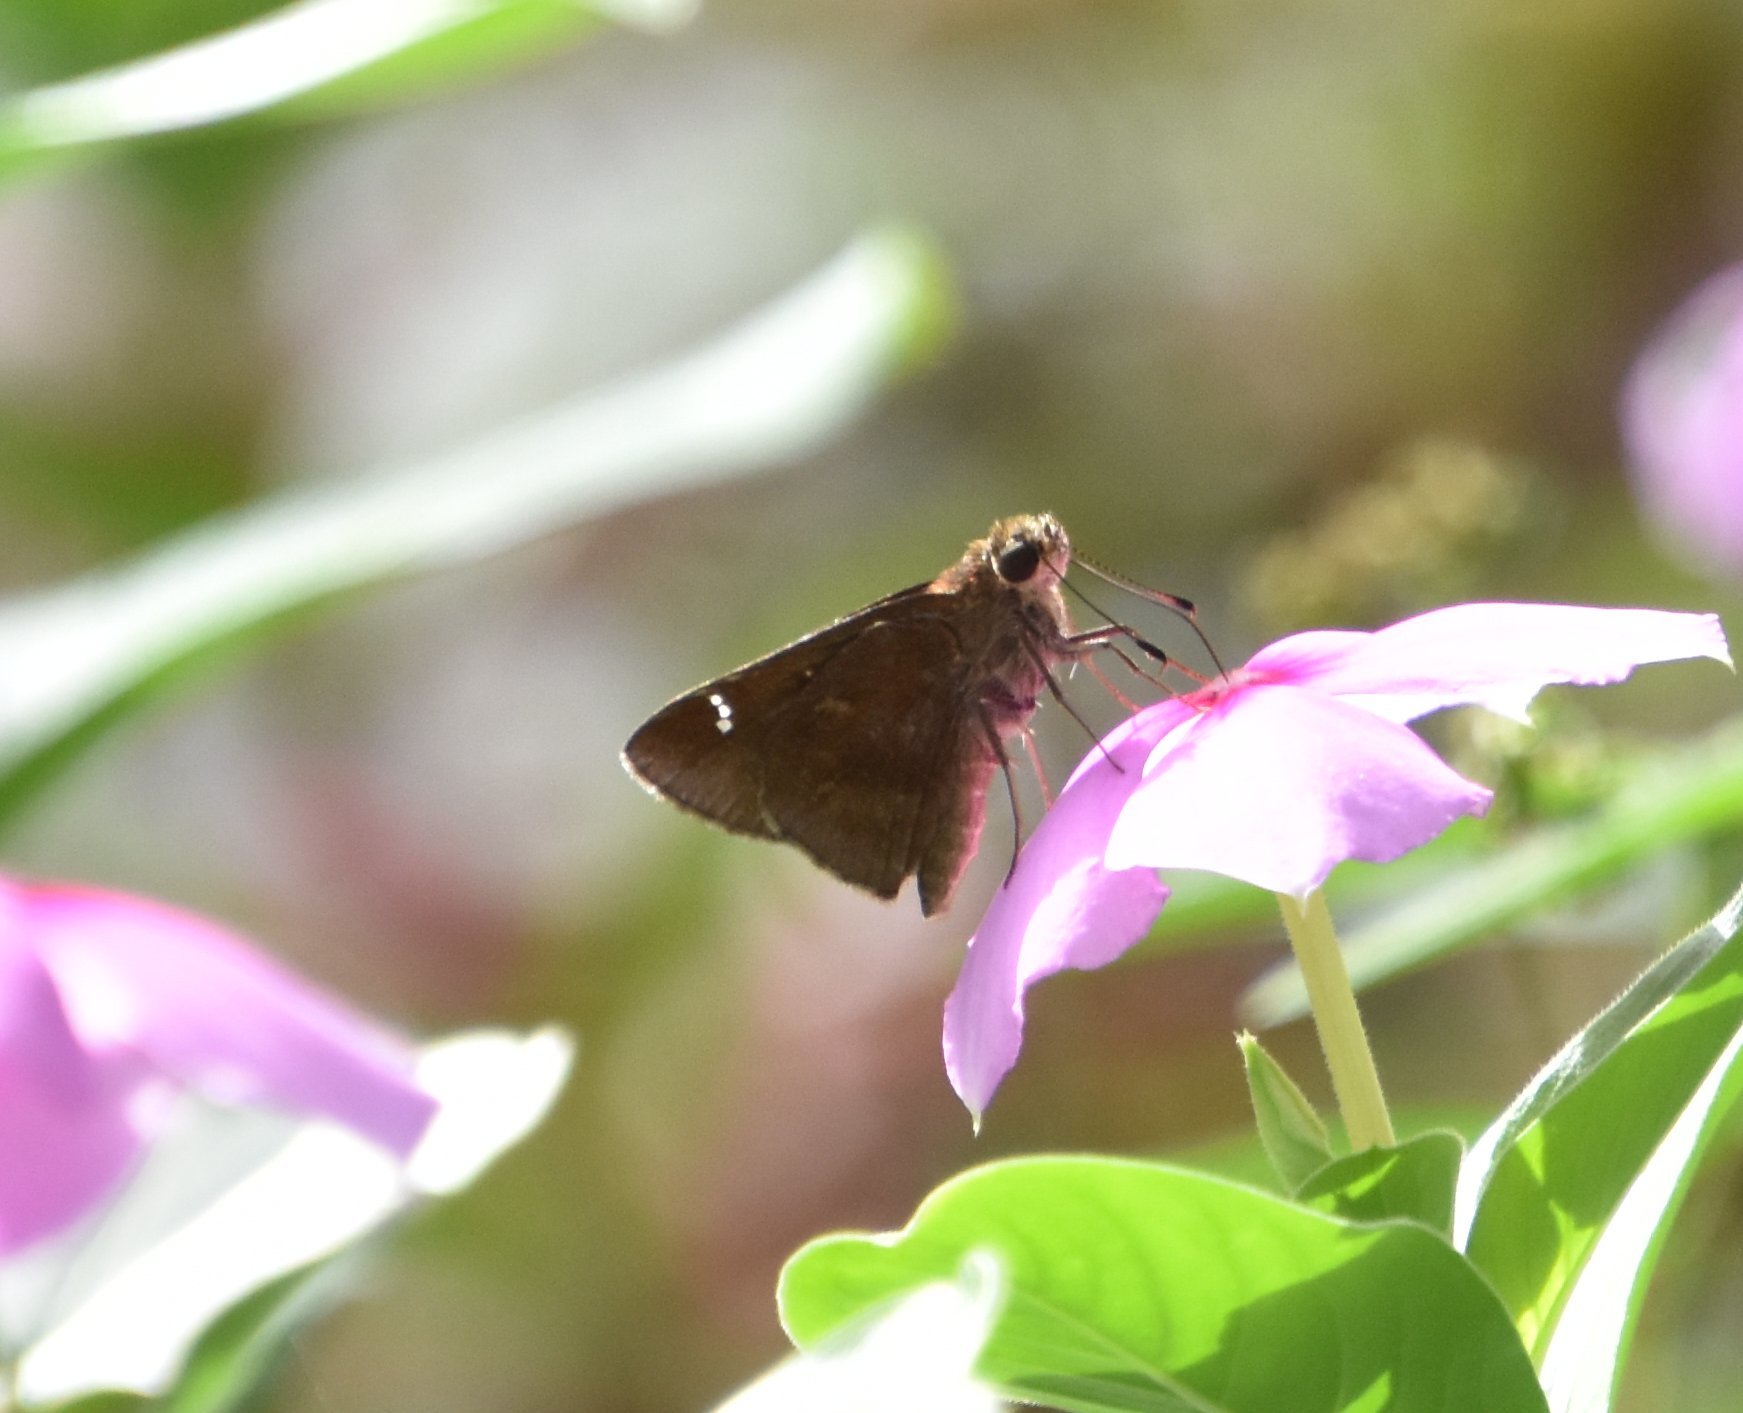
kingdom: Animalia
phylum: Arthropoda
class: Insecta
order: Lepidoptera
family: Hesperiidae
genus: Lerema
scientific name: Lerema accius
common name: Clouded skipper
